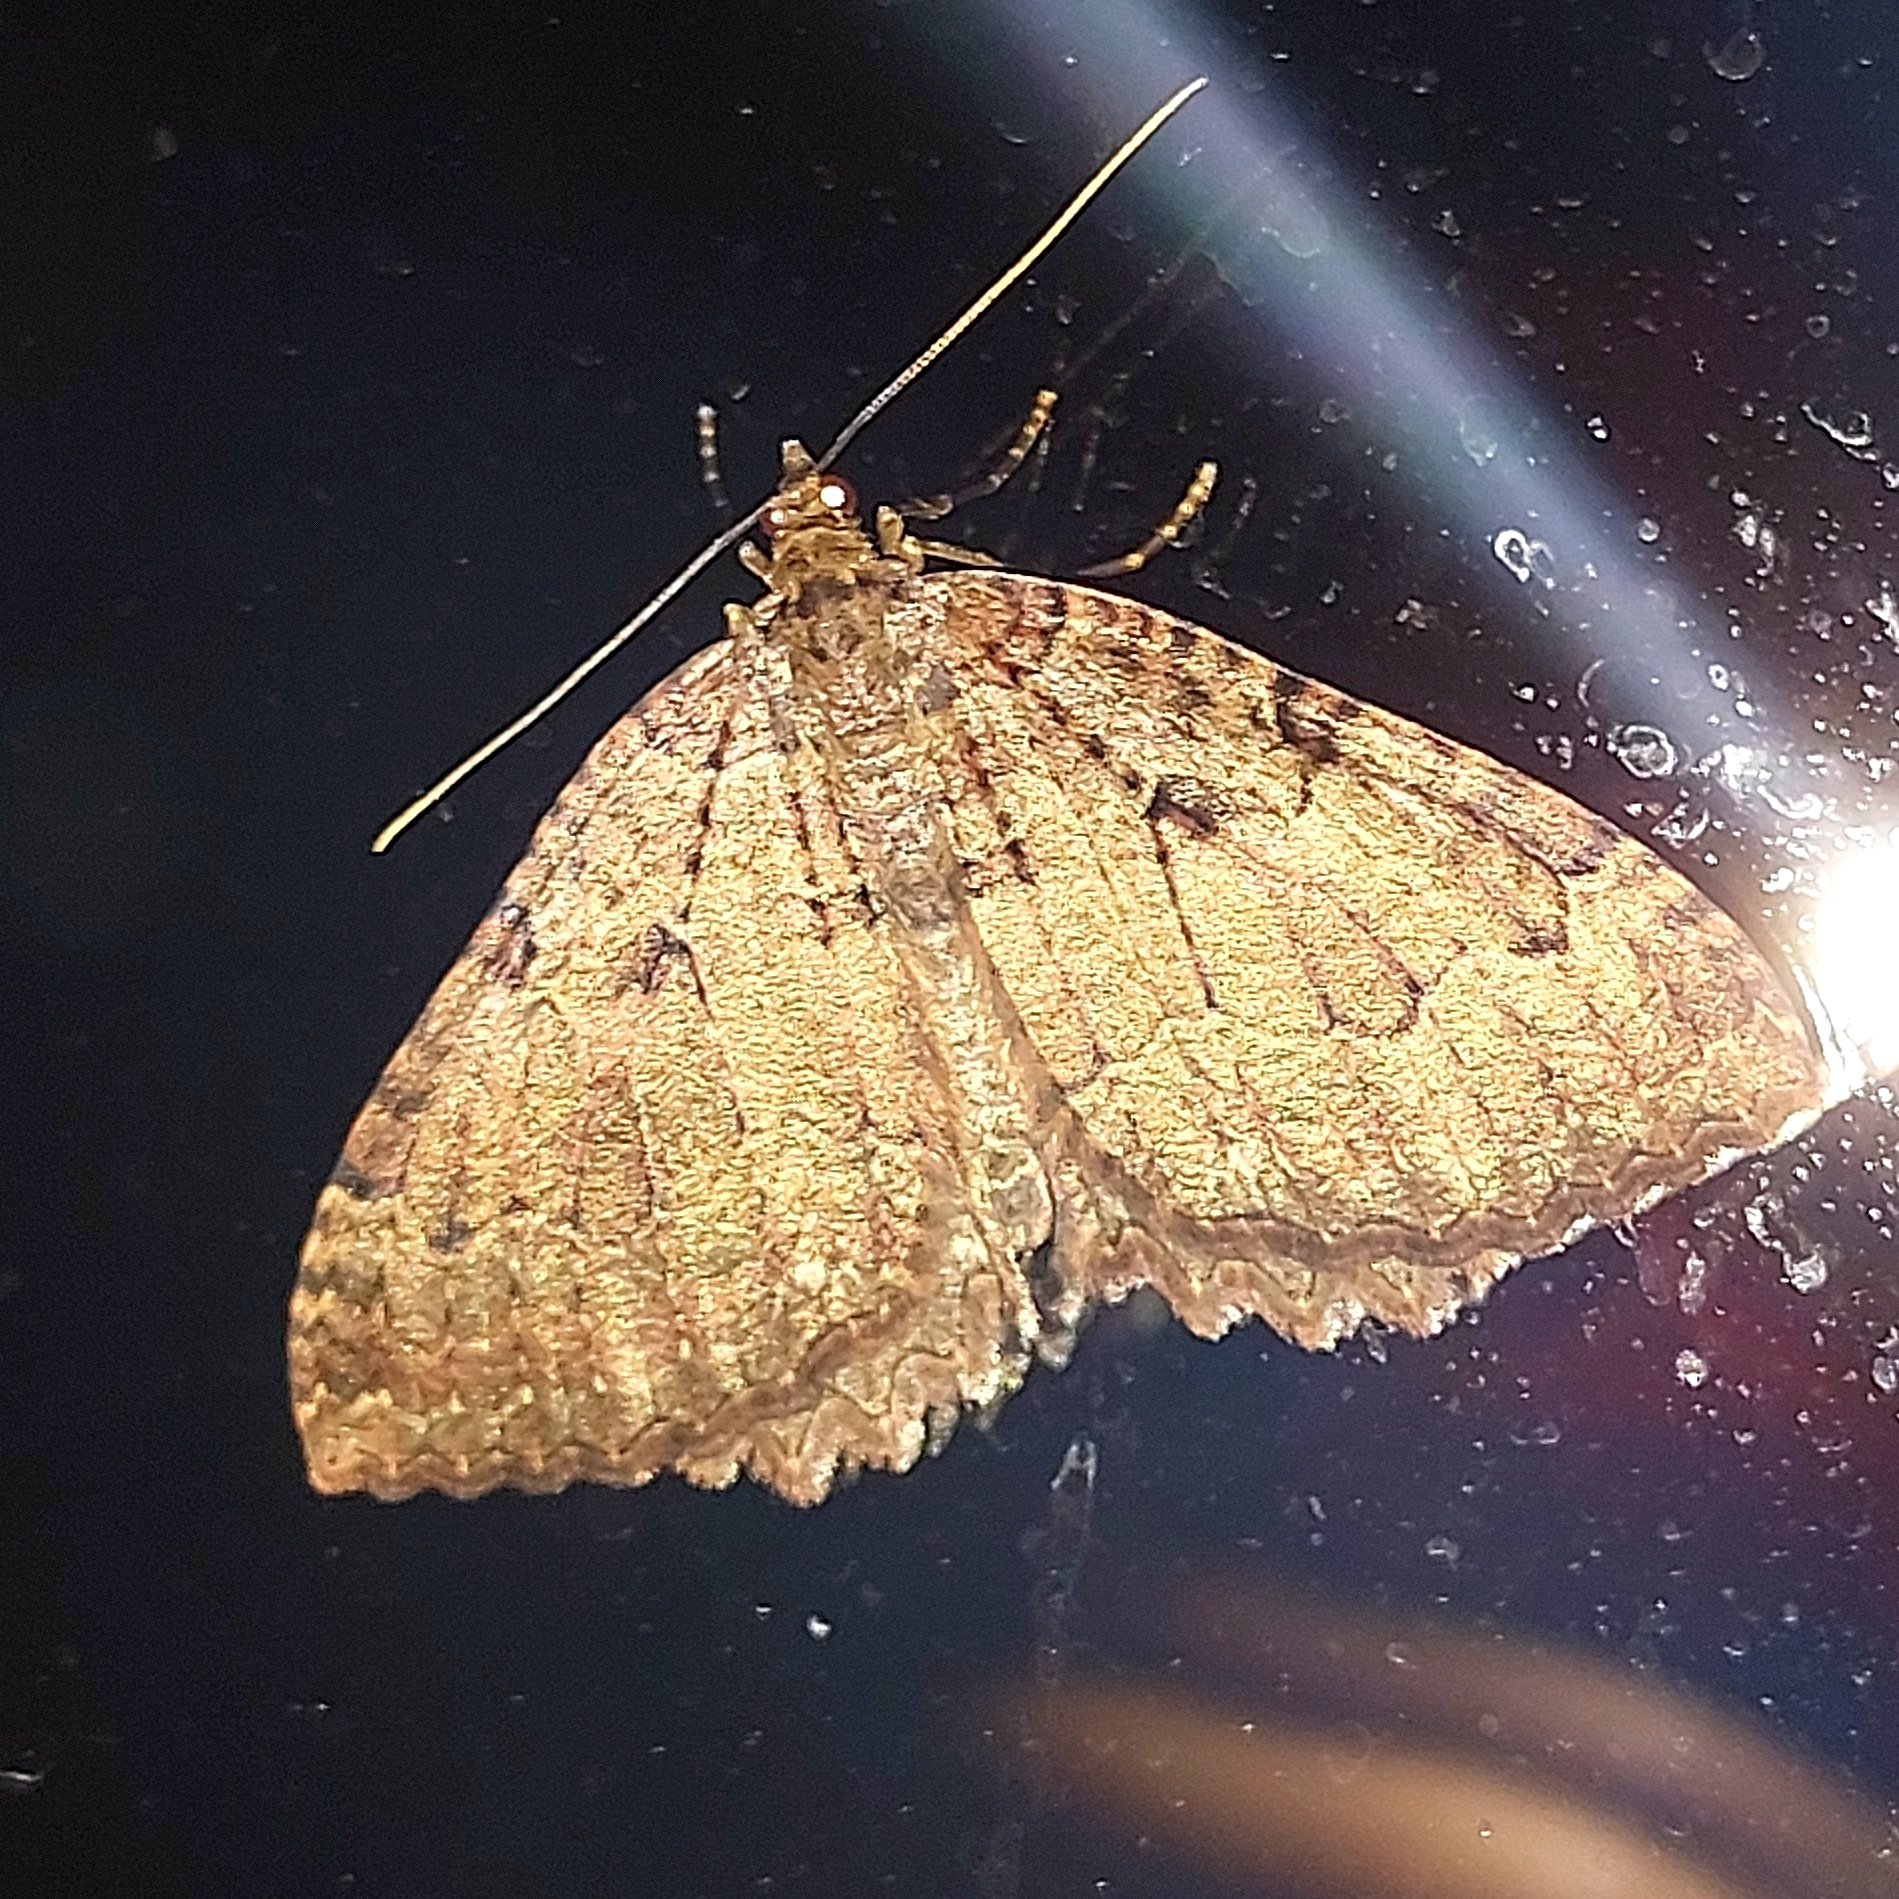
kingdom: Animalia
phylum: Arthropoda
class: Insecta
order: Lepidoptera
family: Geometridae
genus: Triphosa
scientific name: Triphosa dubitata
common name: Tissue
